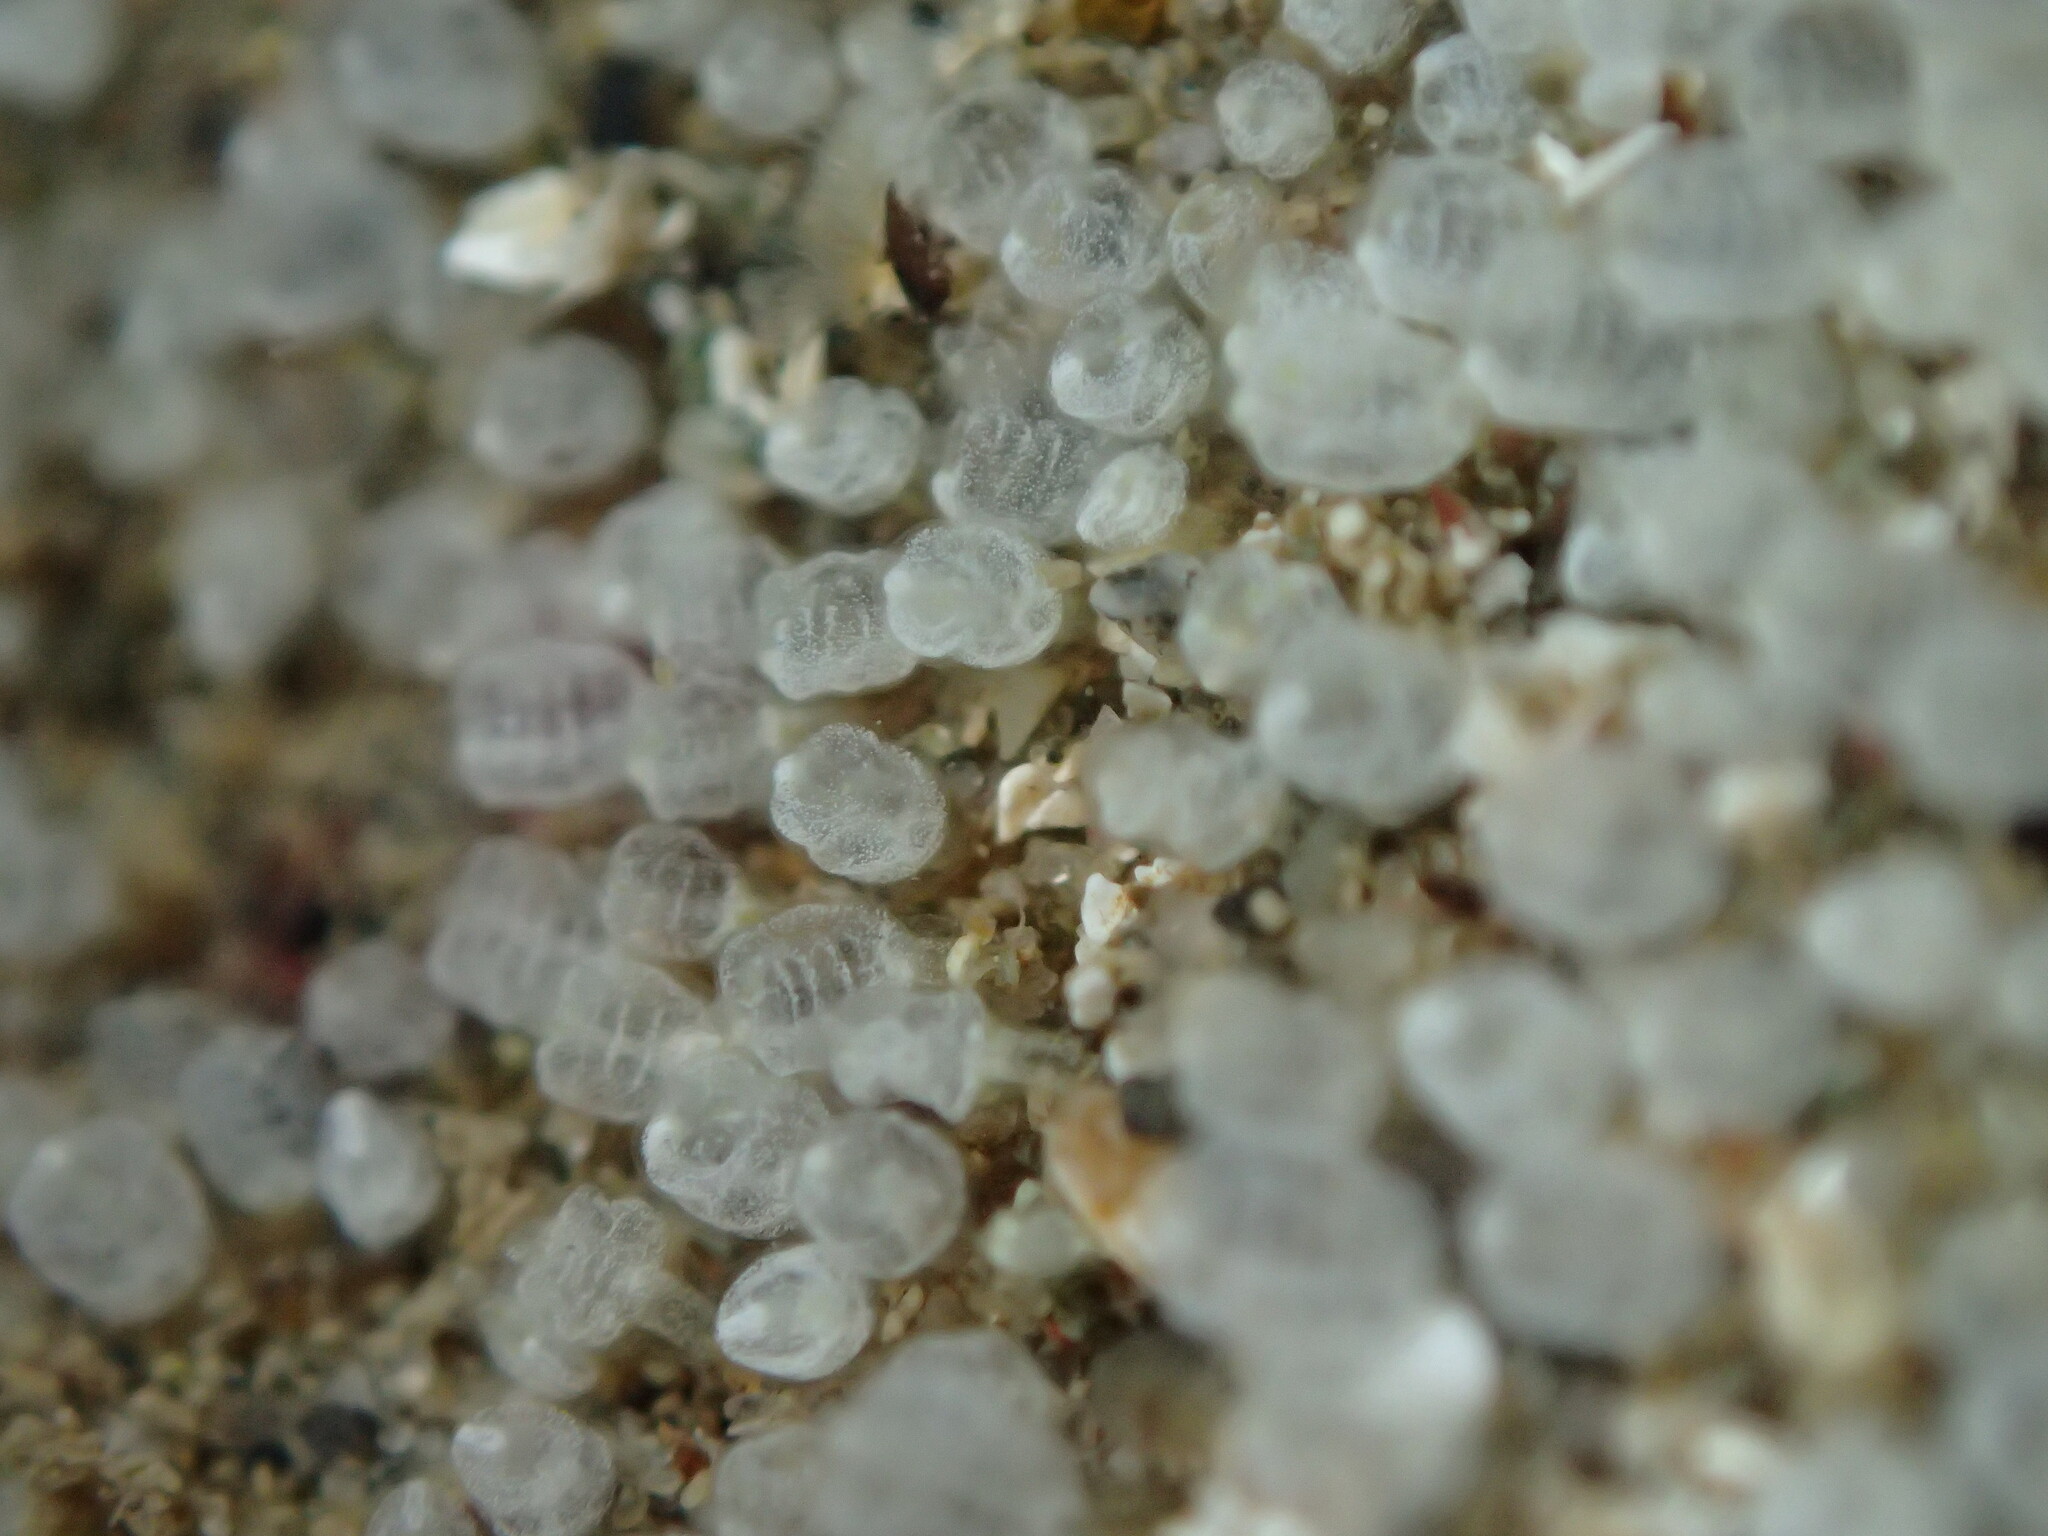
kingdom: Animalia
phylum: Chordata
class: Ascidiacea
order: Aplousobranchia
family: Clavelinidae
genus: Pycnoclavella
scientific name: Pycnoclavella stanleyi
